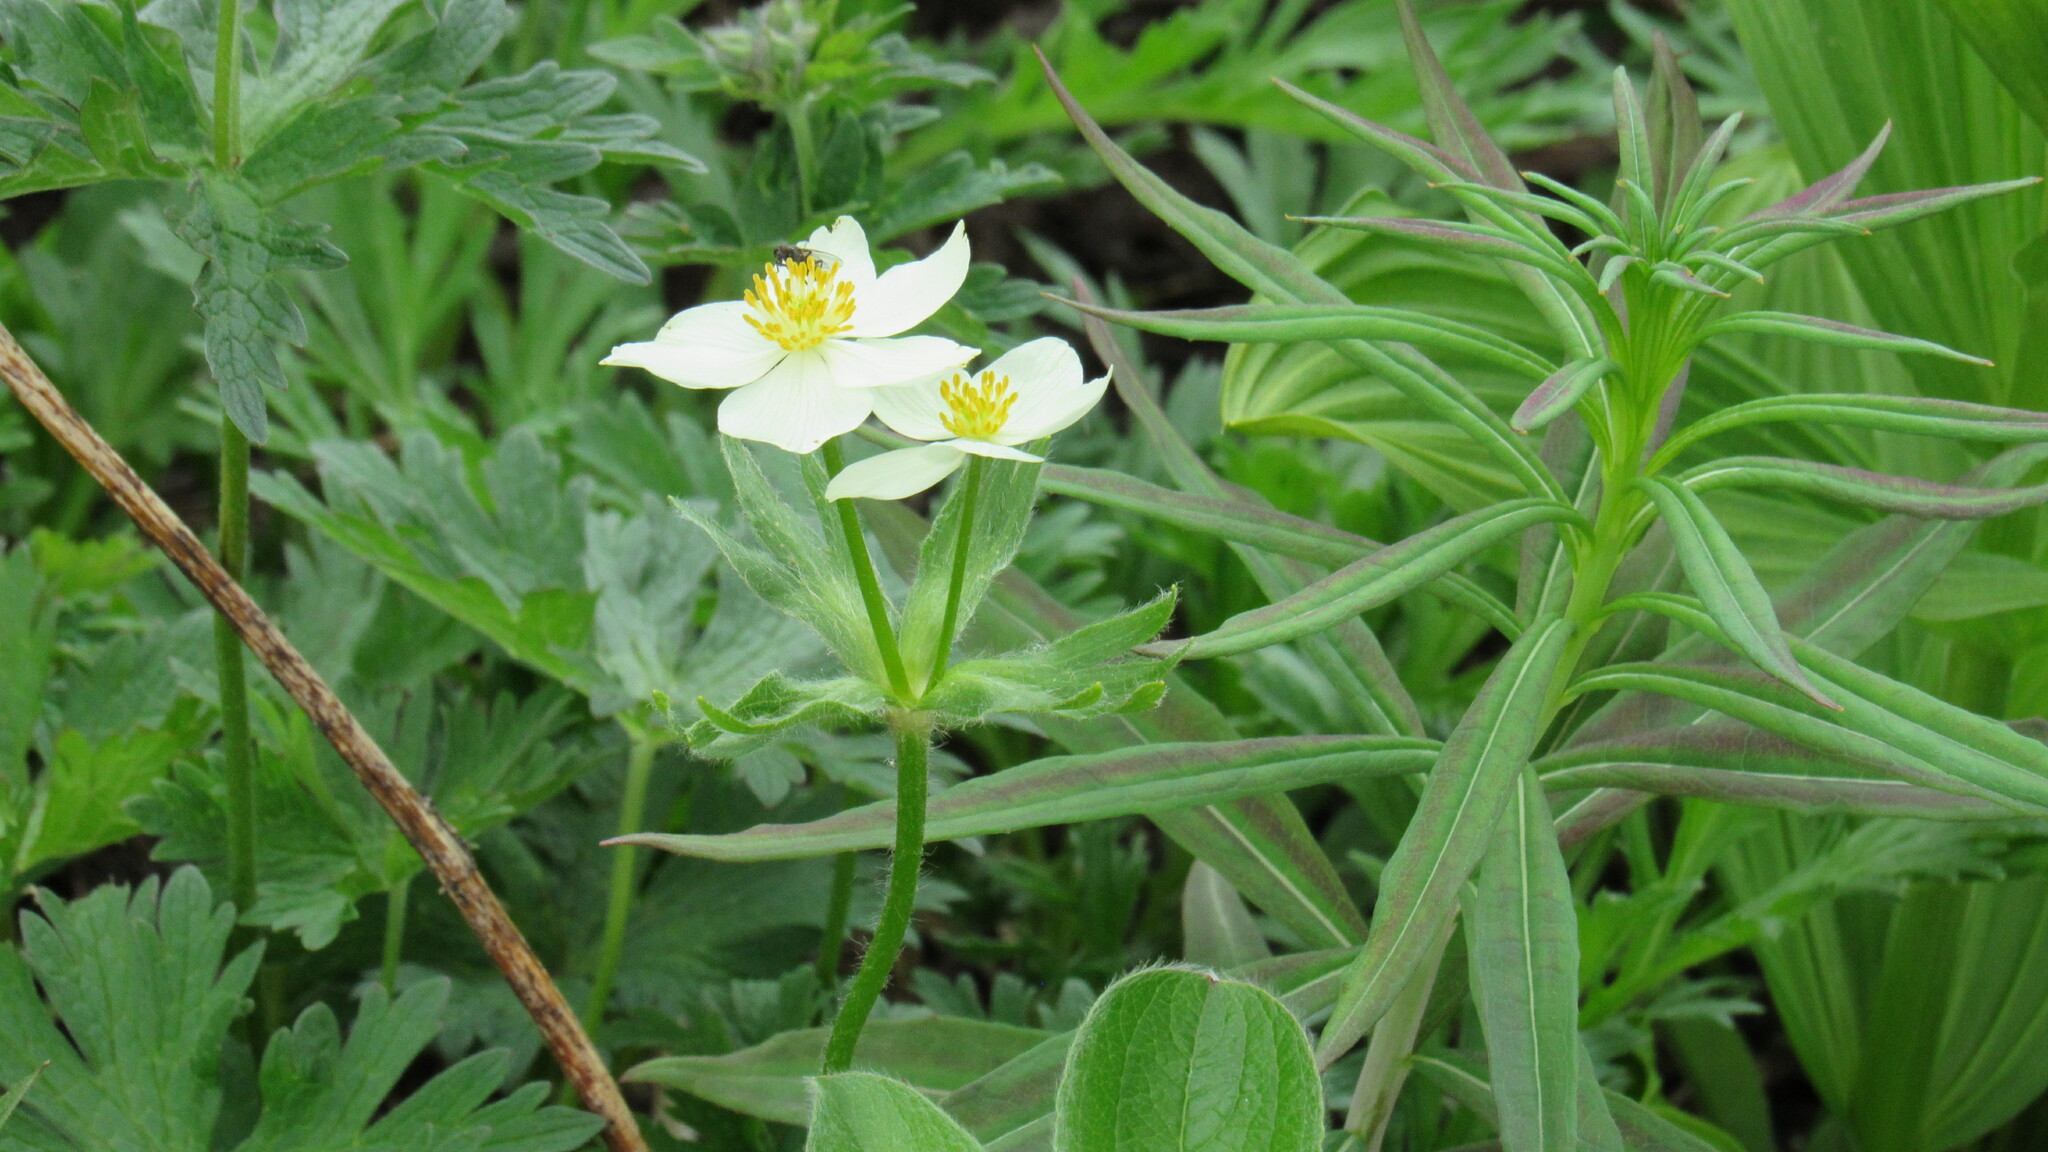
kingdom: Plantae
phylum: Tracheophyta
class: Magnoliopsida
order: Ranunculales
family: Ranunculaceae
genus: Anemonastrum
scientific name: Anemonastrum narcissiflorum
